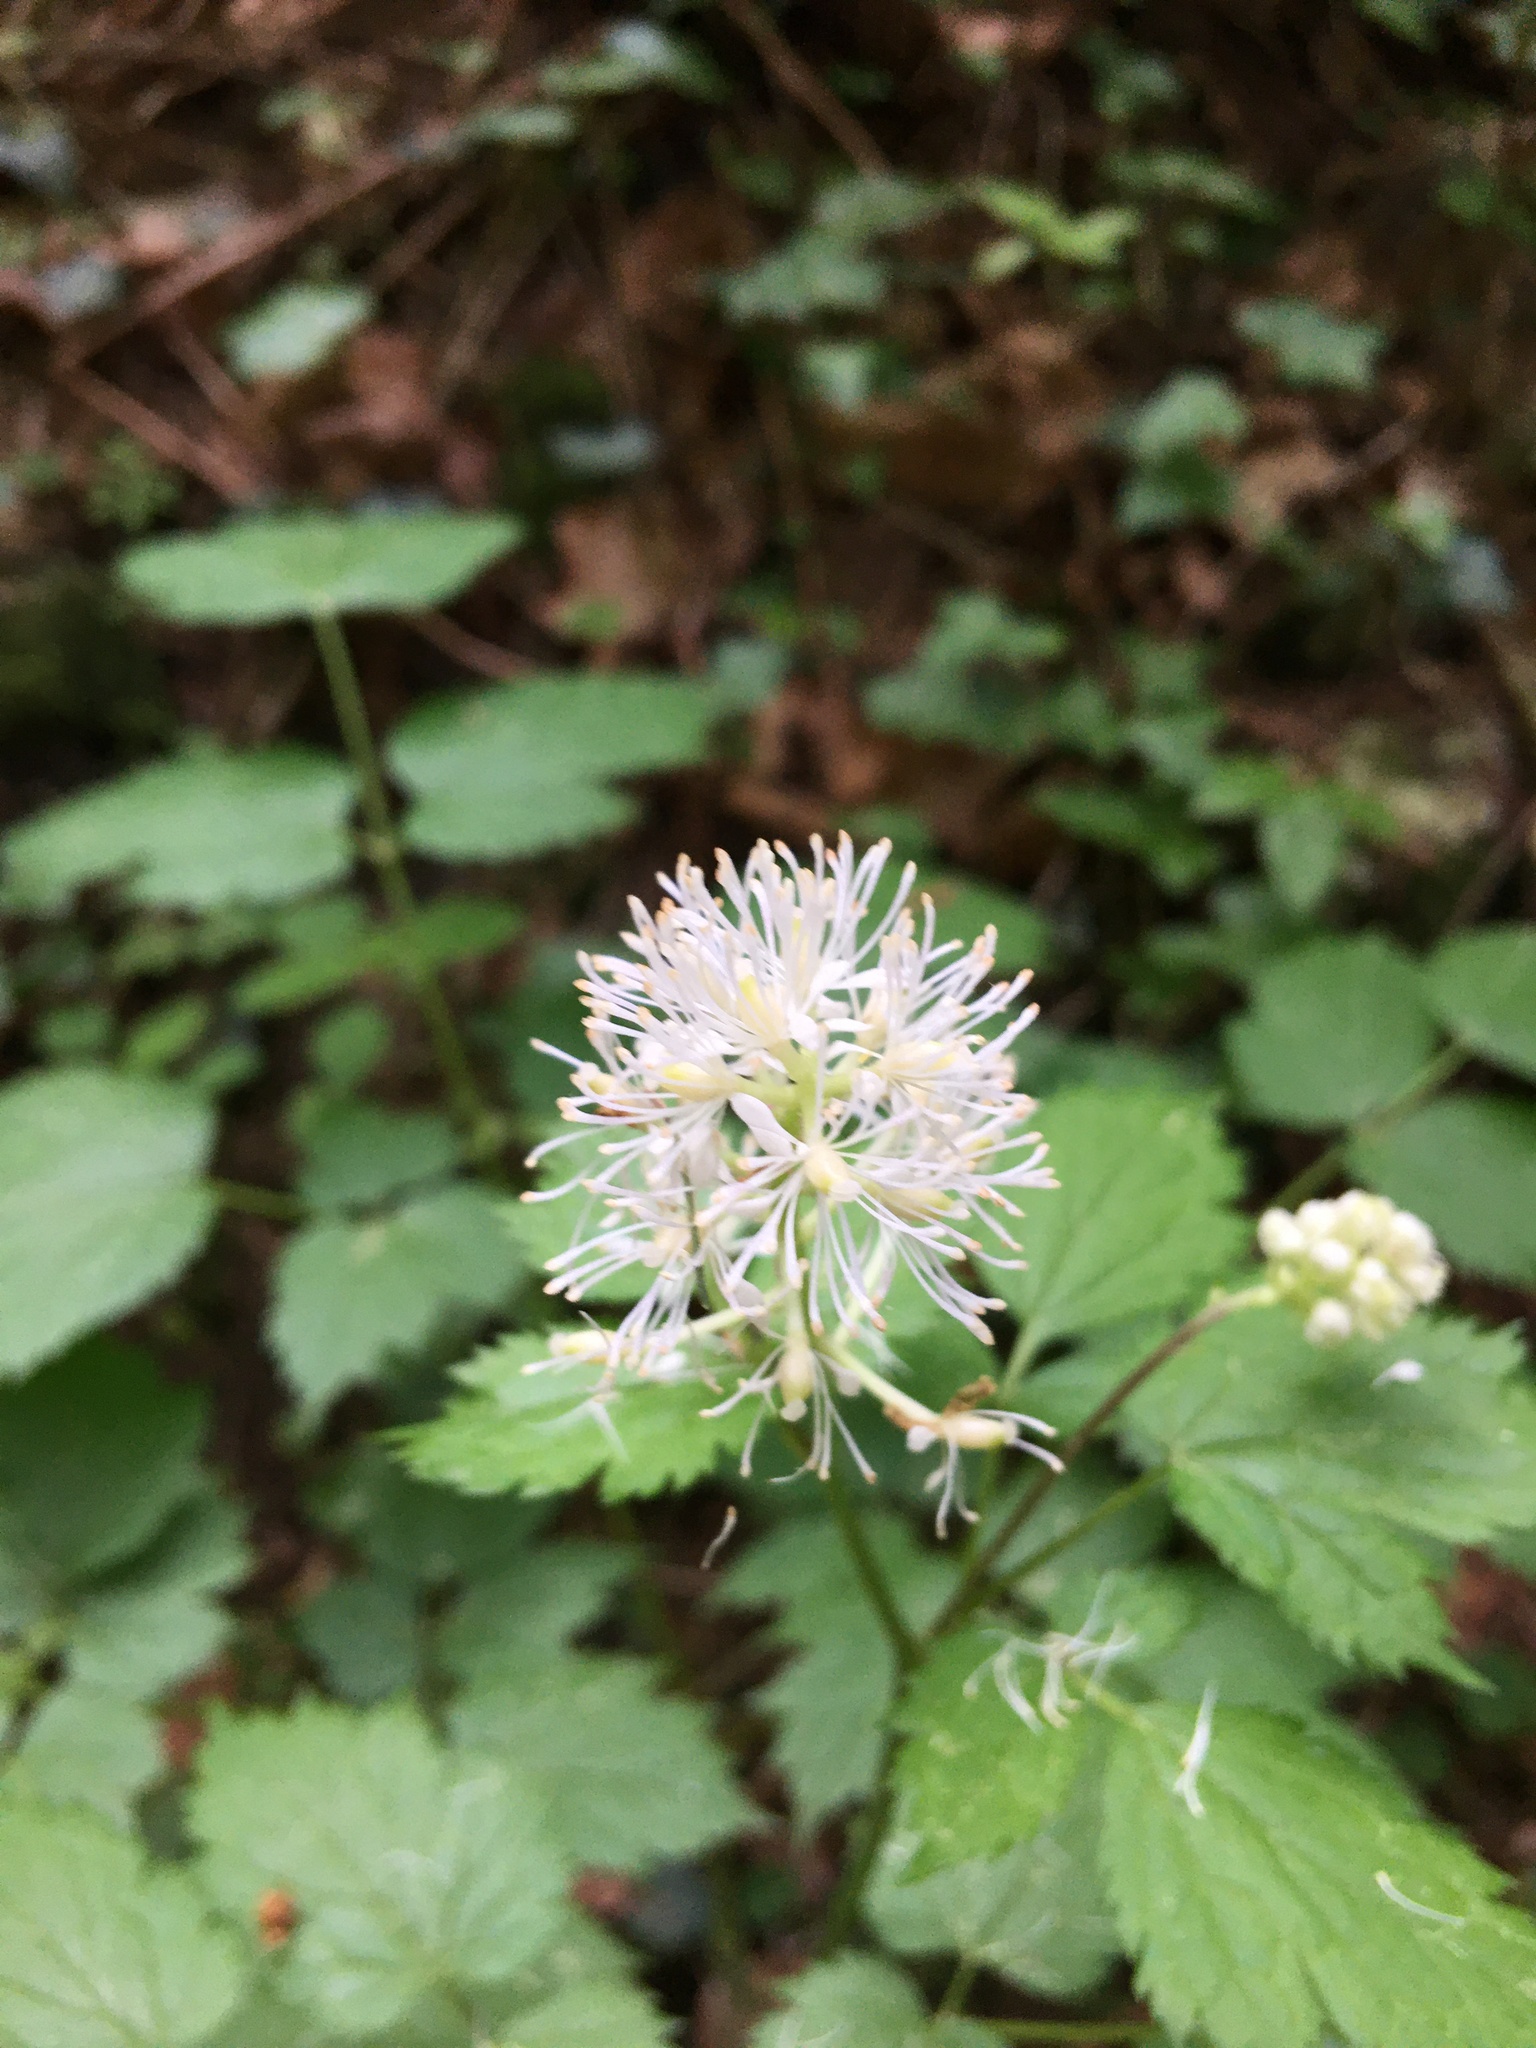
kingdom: Plantae
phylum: Tracheophyta
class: Magnoliopsida
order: Ranunculales
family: Ranunculaceae
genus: Actaea
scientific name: Actaea spicata
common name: Baneberry
